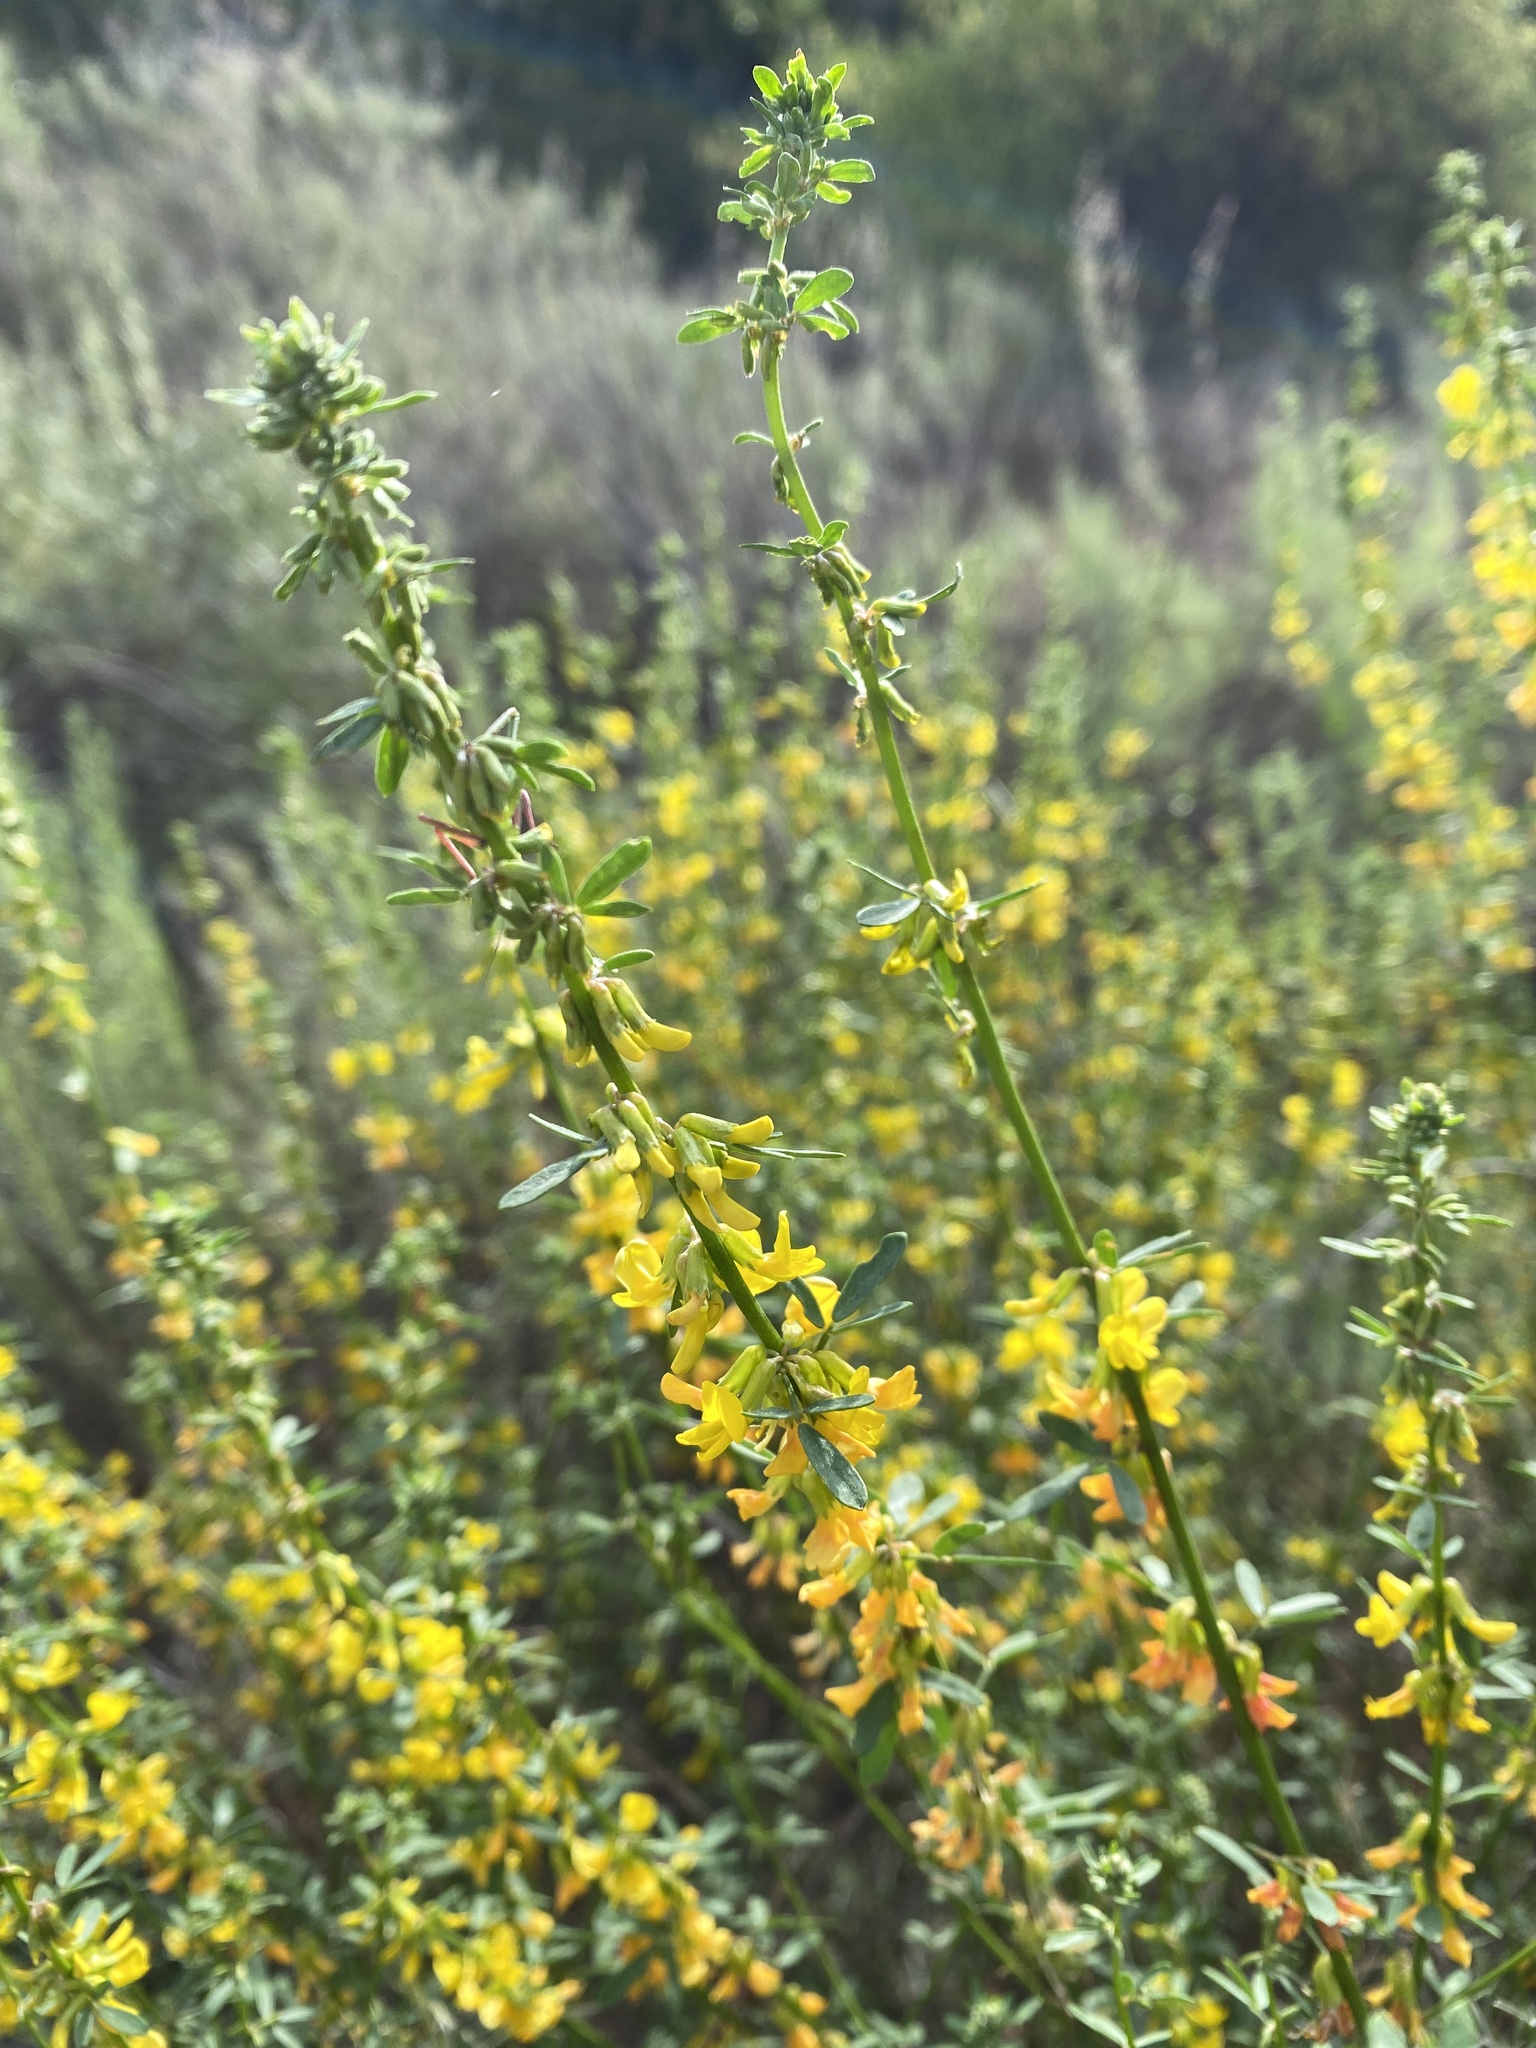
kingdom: Plantae
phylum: Tracheophyta
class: Magnoliopsida
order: Fabales
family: Fabaceae
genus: Acmispon
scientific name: Acmispon glaber
